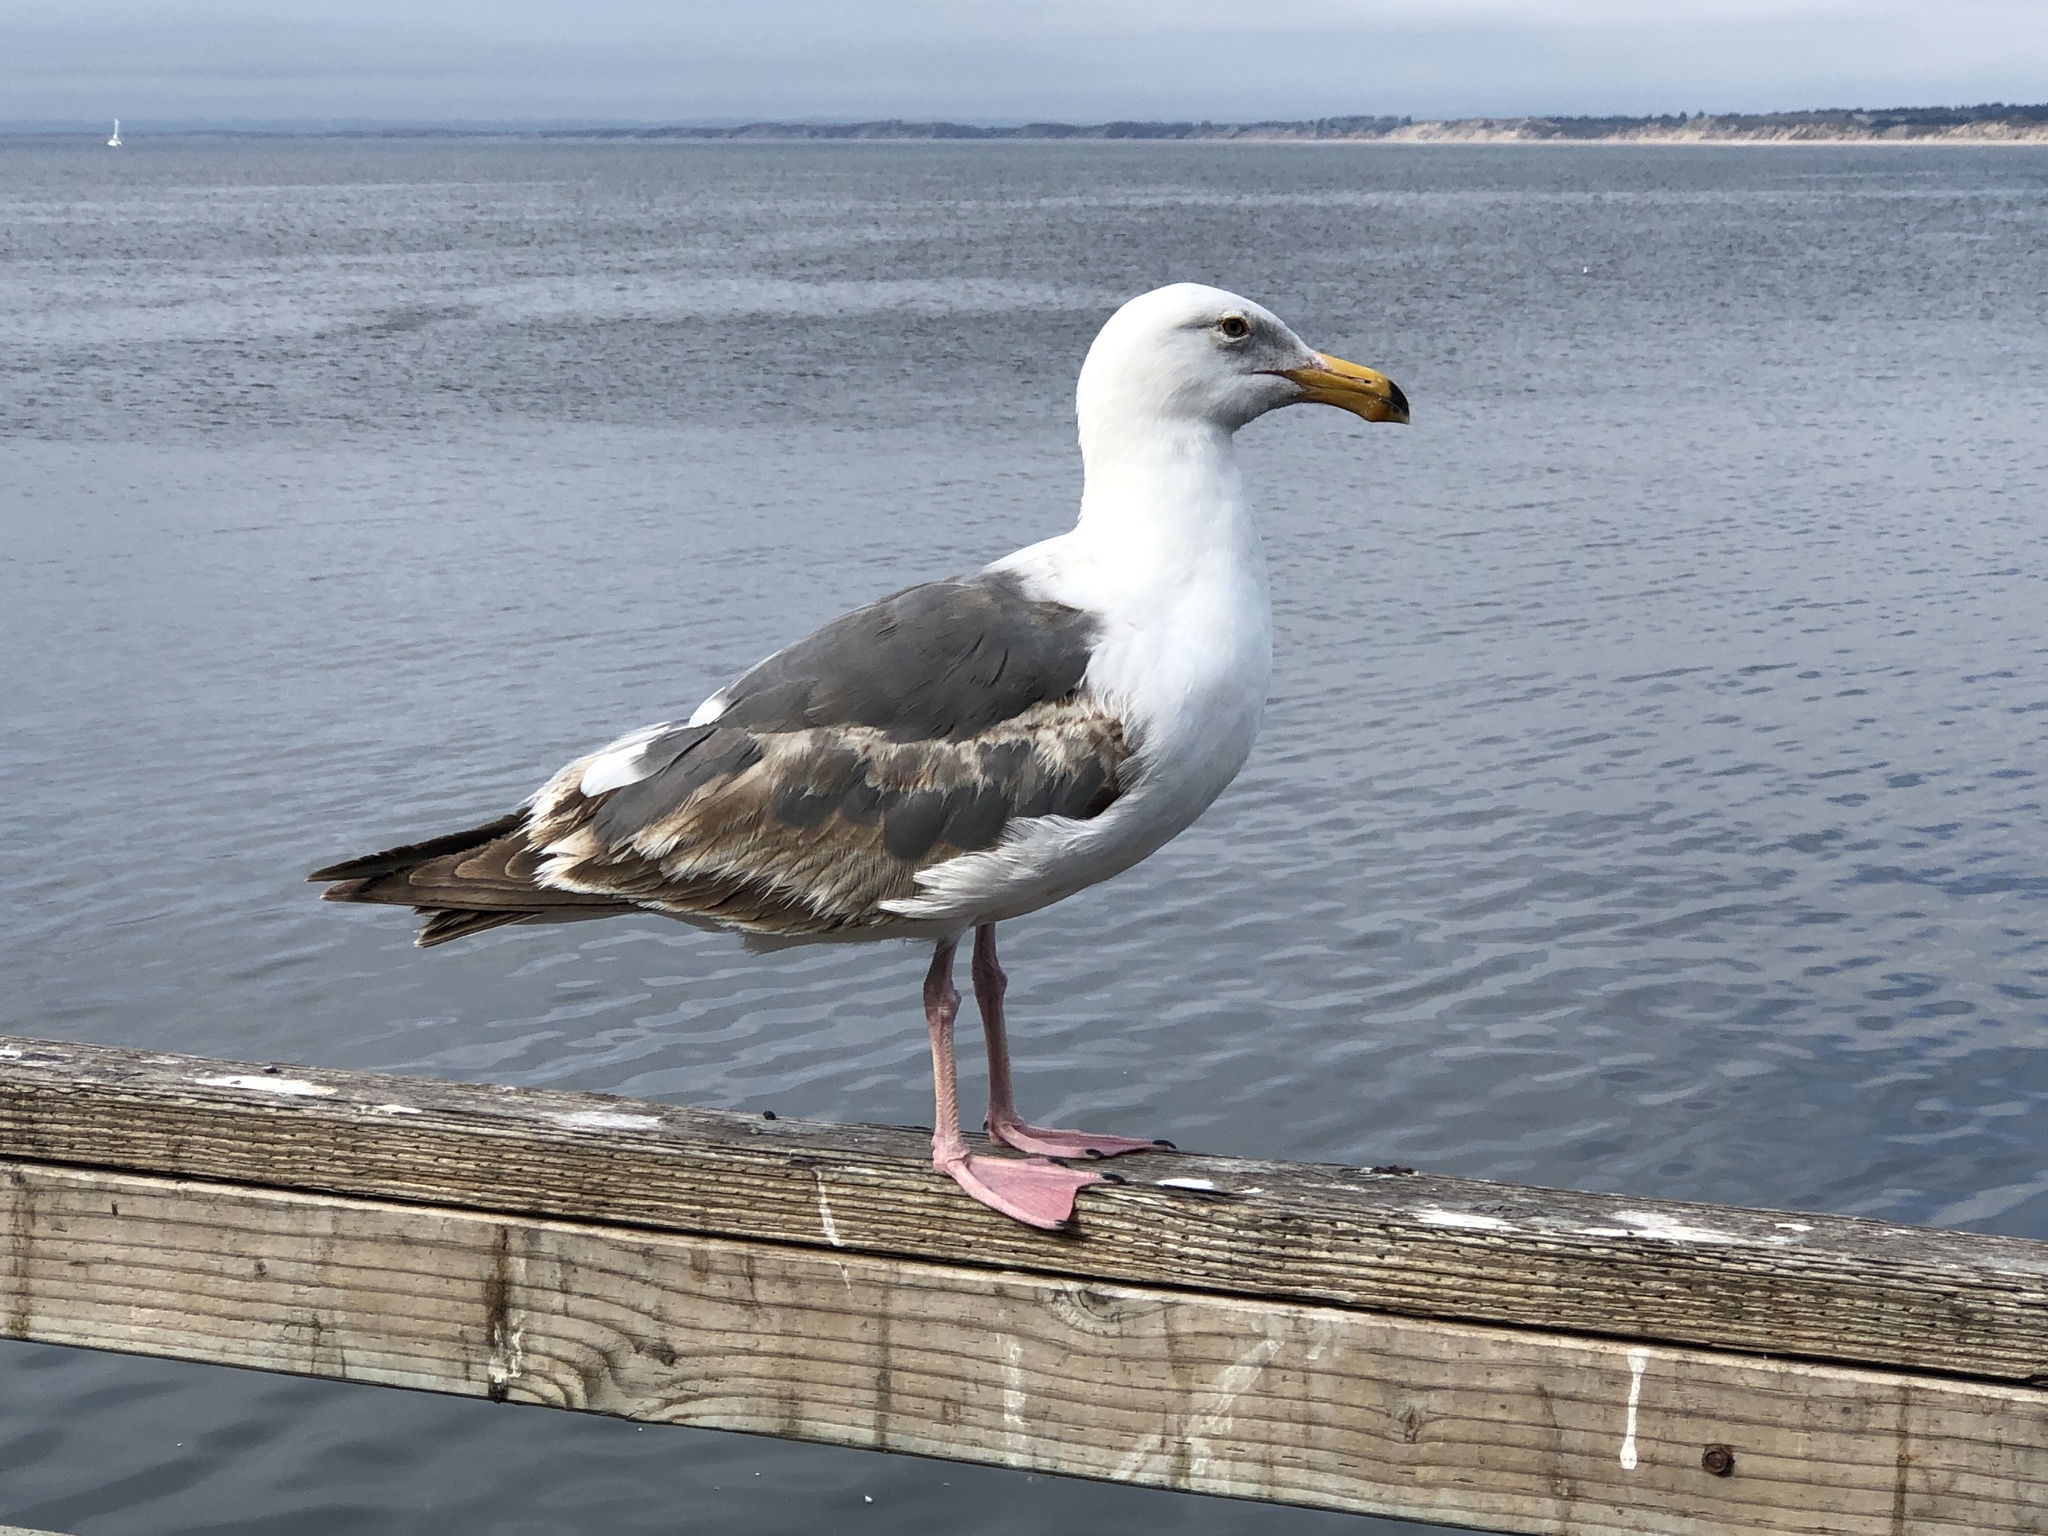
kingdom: Animalia
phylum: Chordata
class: Aves
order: Charadriiformes
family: Laridae
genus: Larus
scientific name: Larus occidentalis
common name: Western gull
